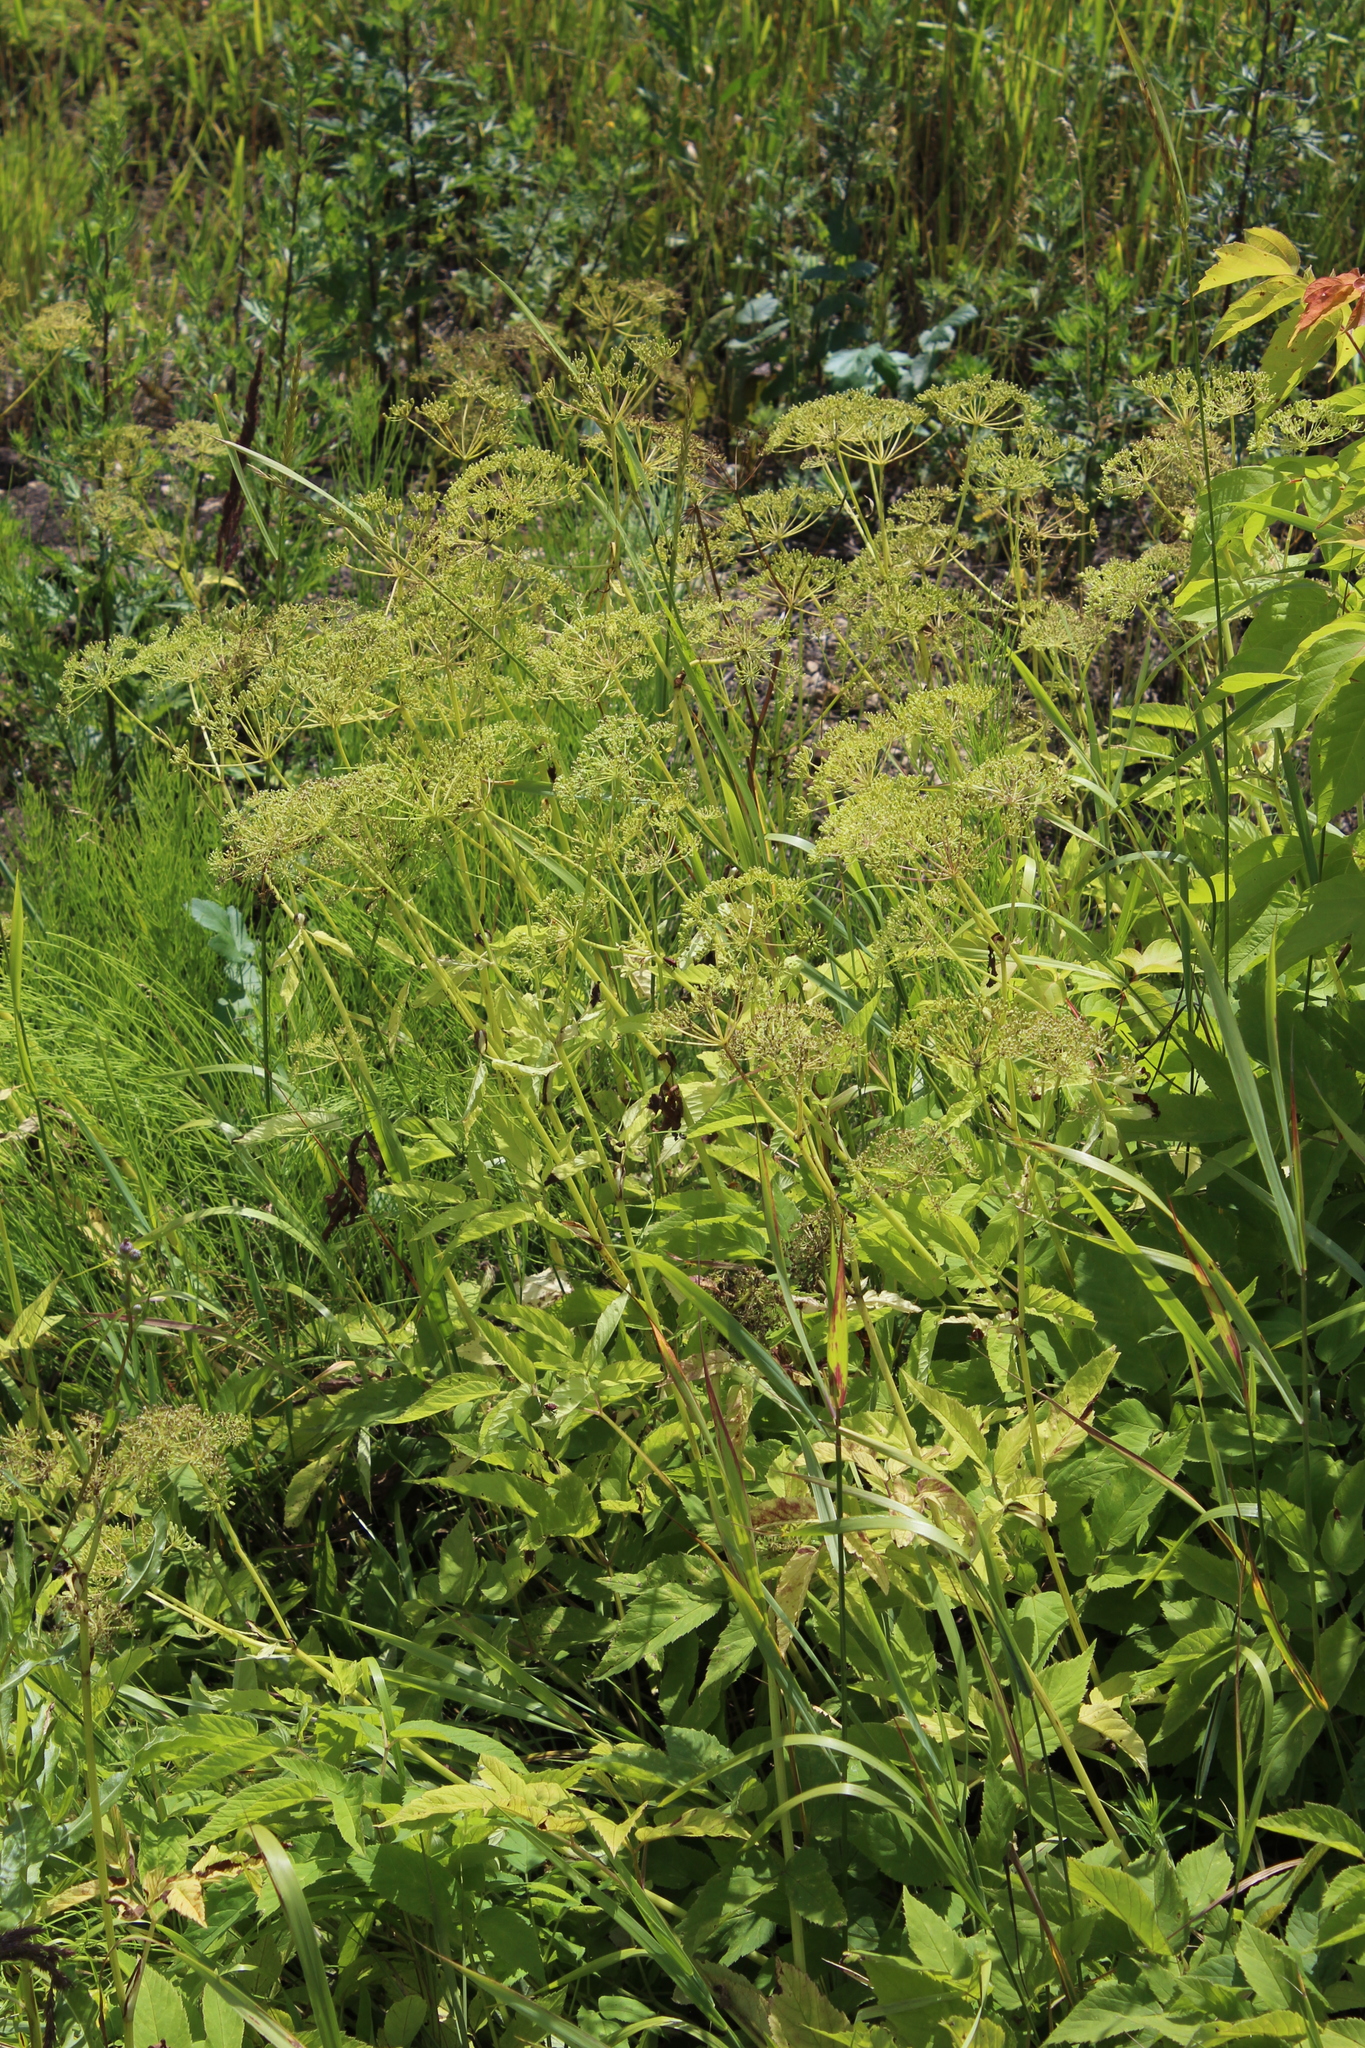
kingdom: Plantae
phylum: Tracheophyta
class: Magnoliopsida
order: Apiales
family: Apiaceae
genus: Aegopodium
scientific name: Aegopodium podagraria
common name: Ground-elder
